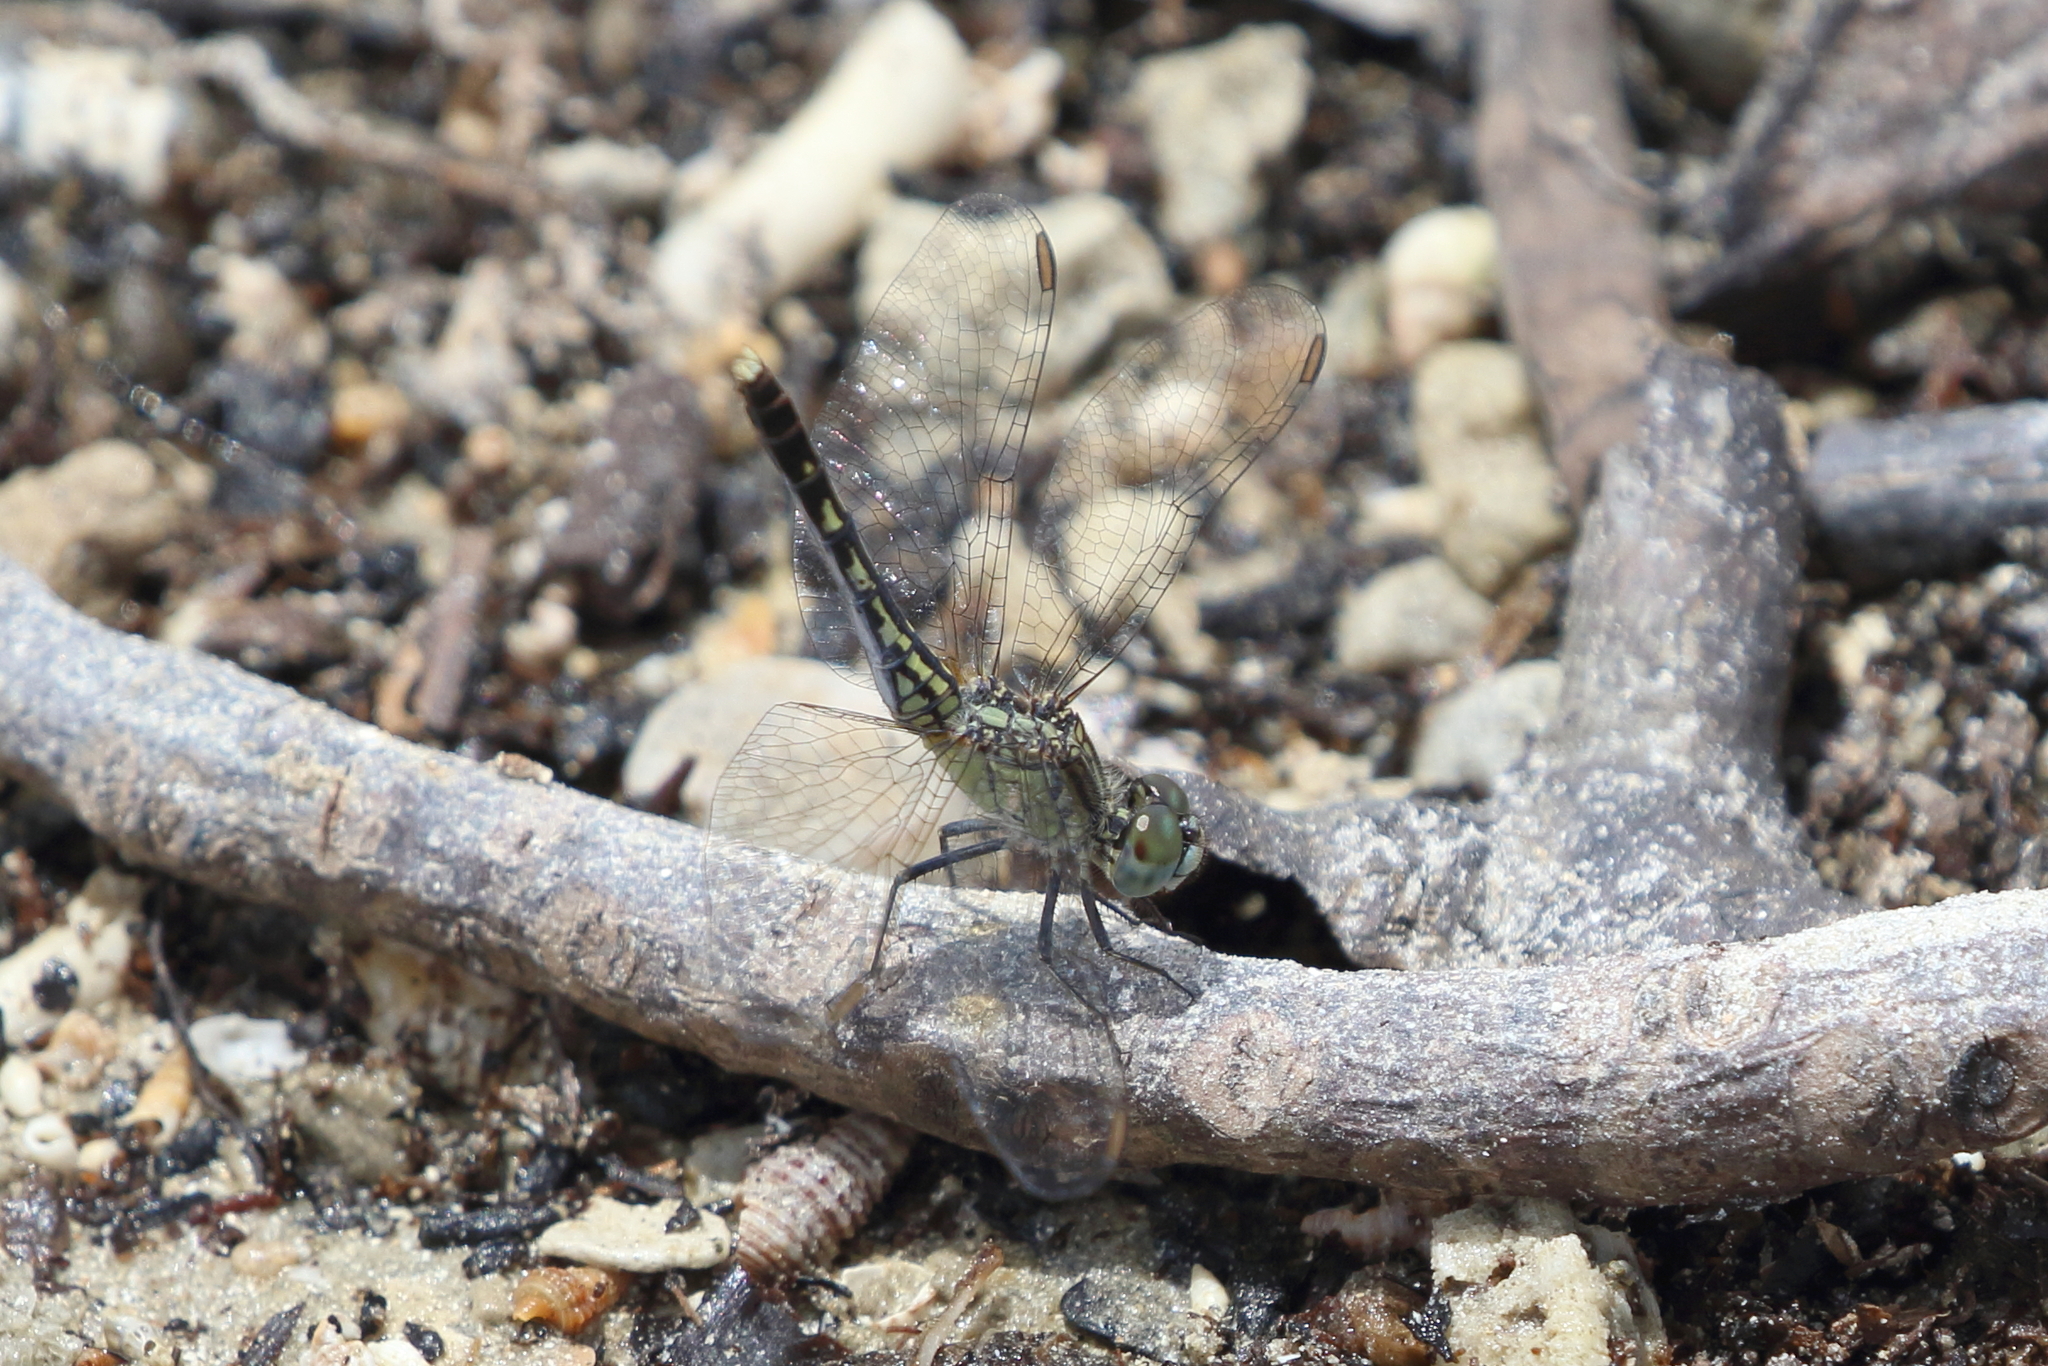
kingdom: Animalia
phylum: Arthropoda
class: Insecta
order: Odonata
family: Libellulidae
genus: Diplacodes
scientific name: Diplacodes trivialis
